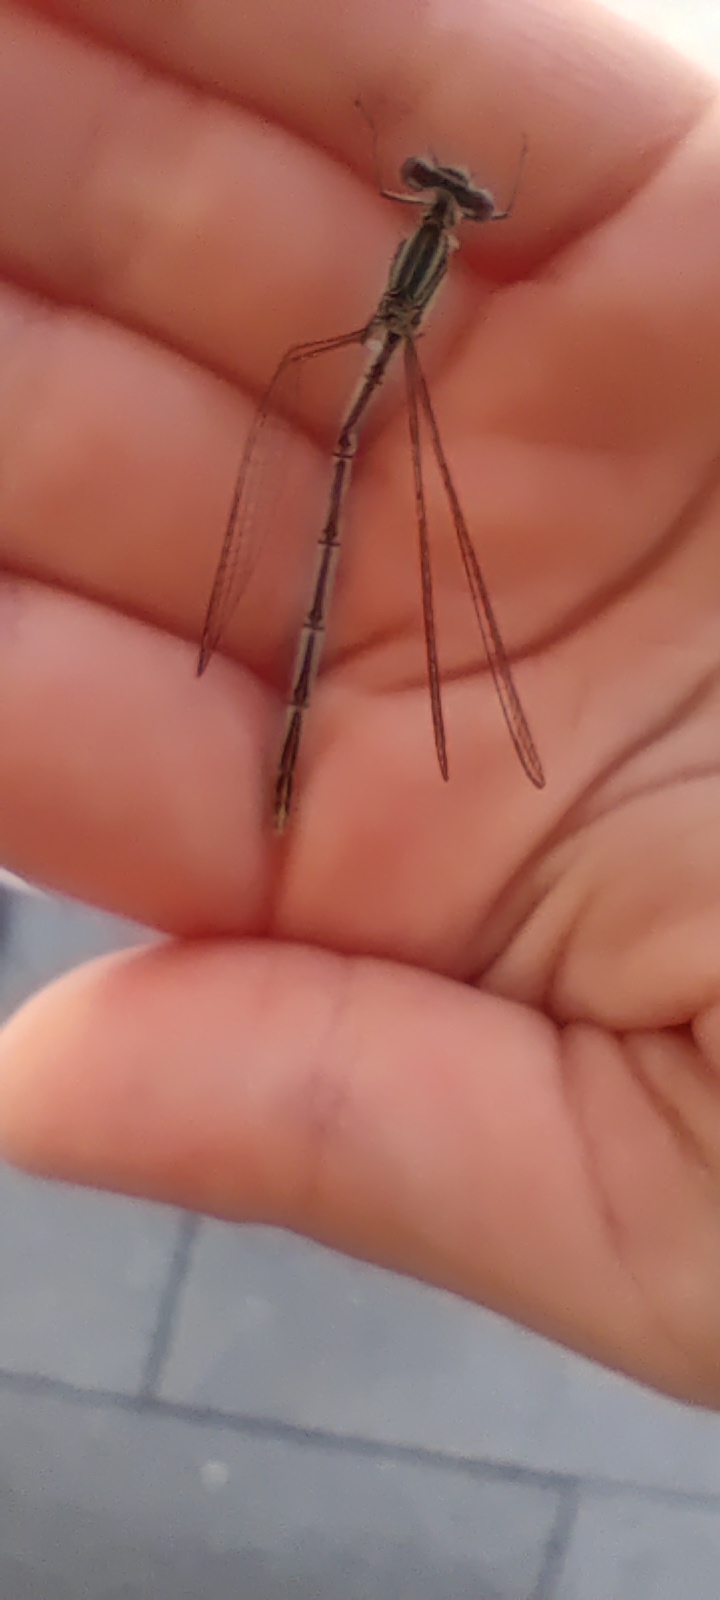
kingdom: Animalia
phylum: Arthropoda
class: Insecta
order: Odonata
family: Platycnemididae
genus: Platycnemis
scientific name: Platycnemis pennipes
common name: White-legged damselfly
